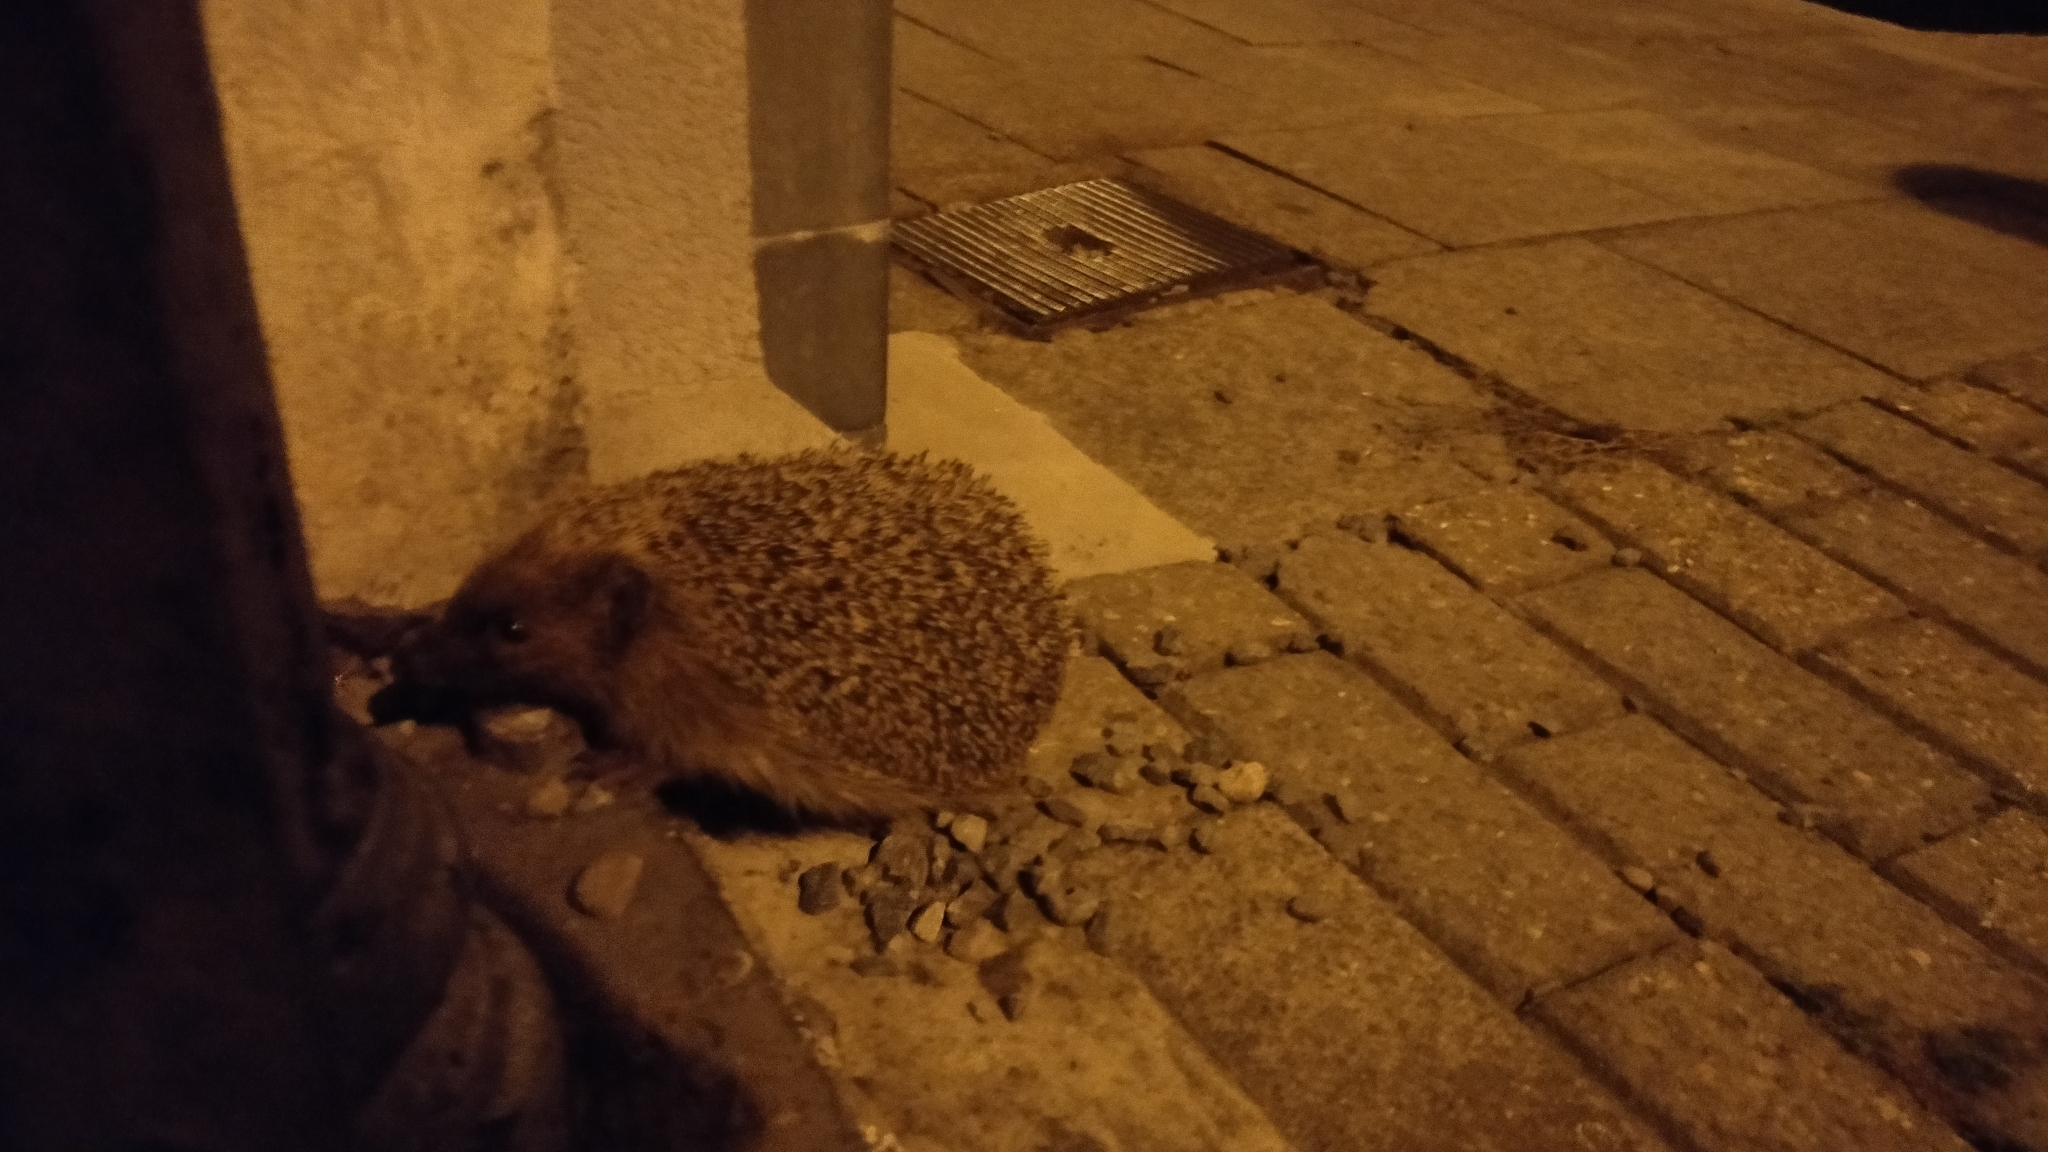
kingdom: Animalia
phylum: Chordata
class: Mammalia
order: Erinaceomorpha
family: Erinaceidae
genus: Erinaceus
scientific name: Erinaceus europaeus
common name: West european hedgehog
